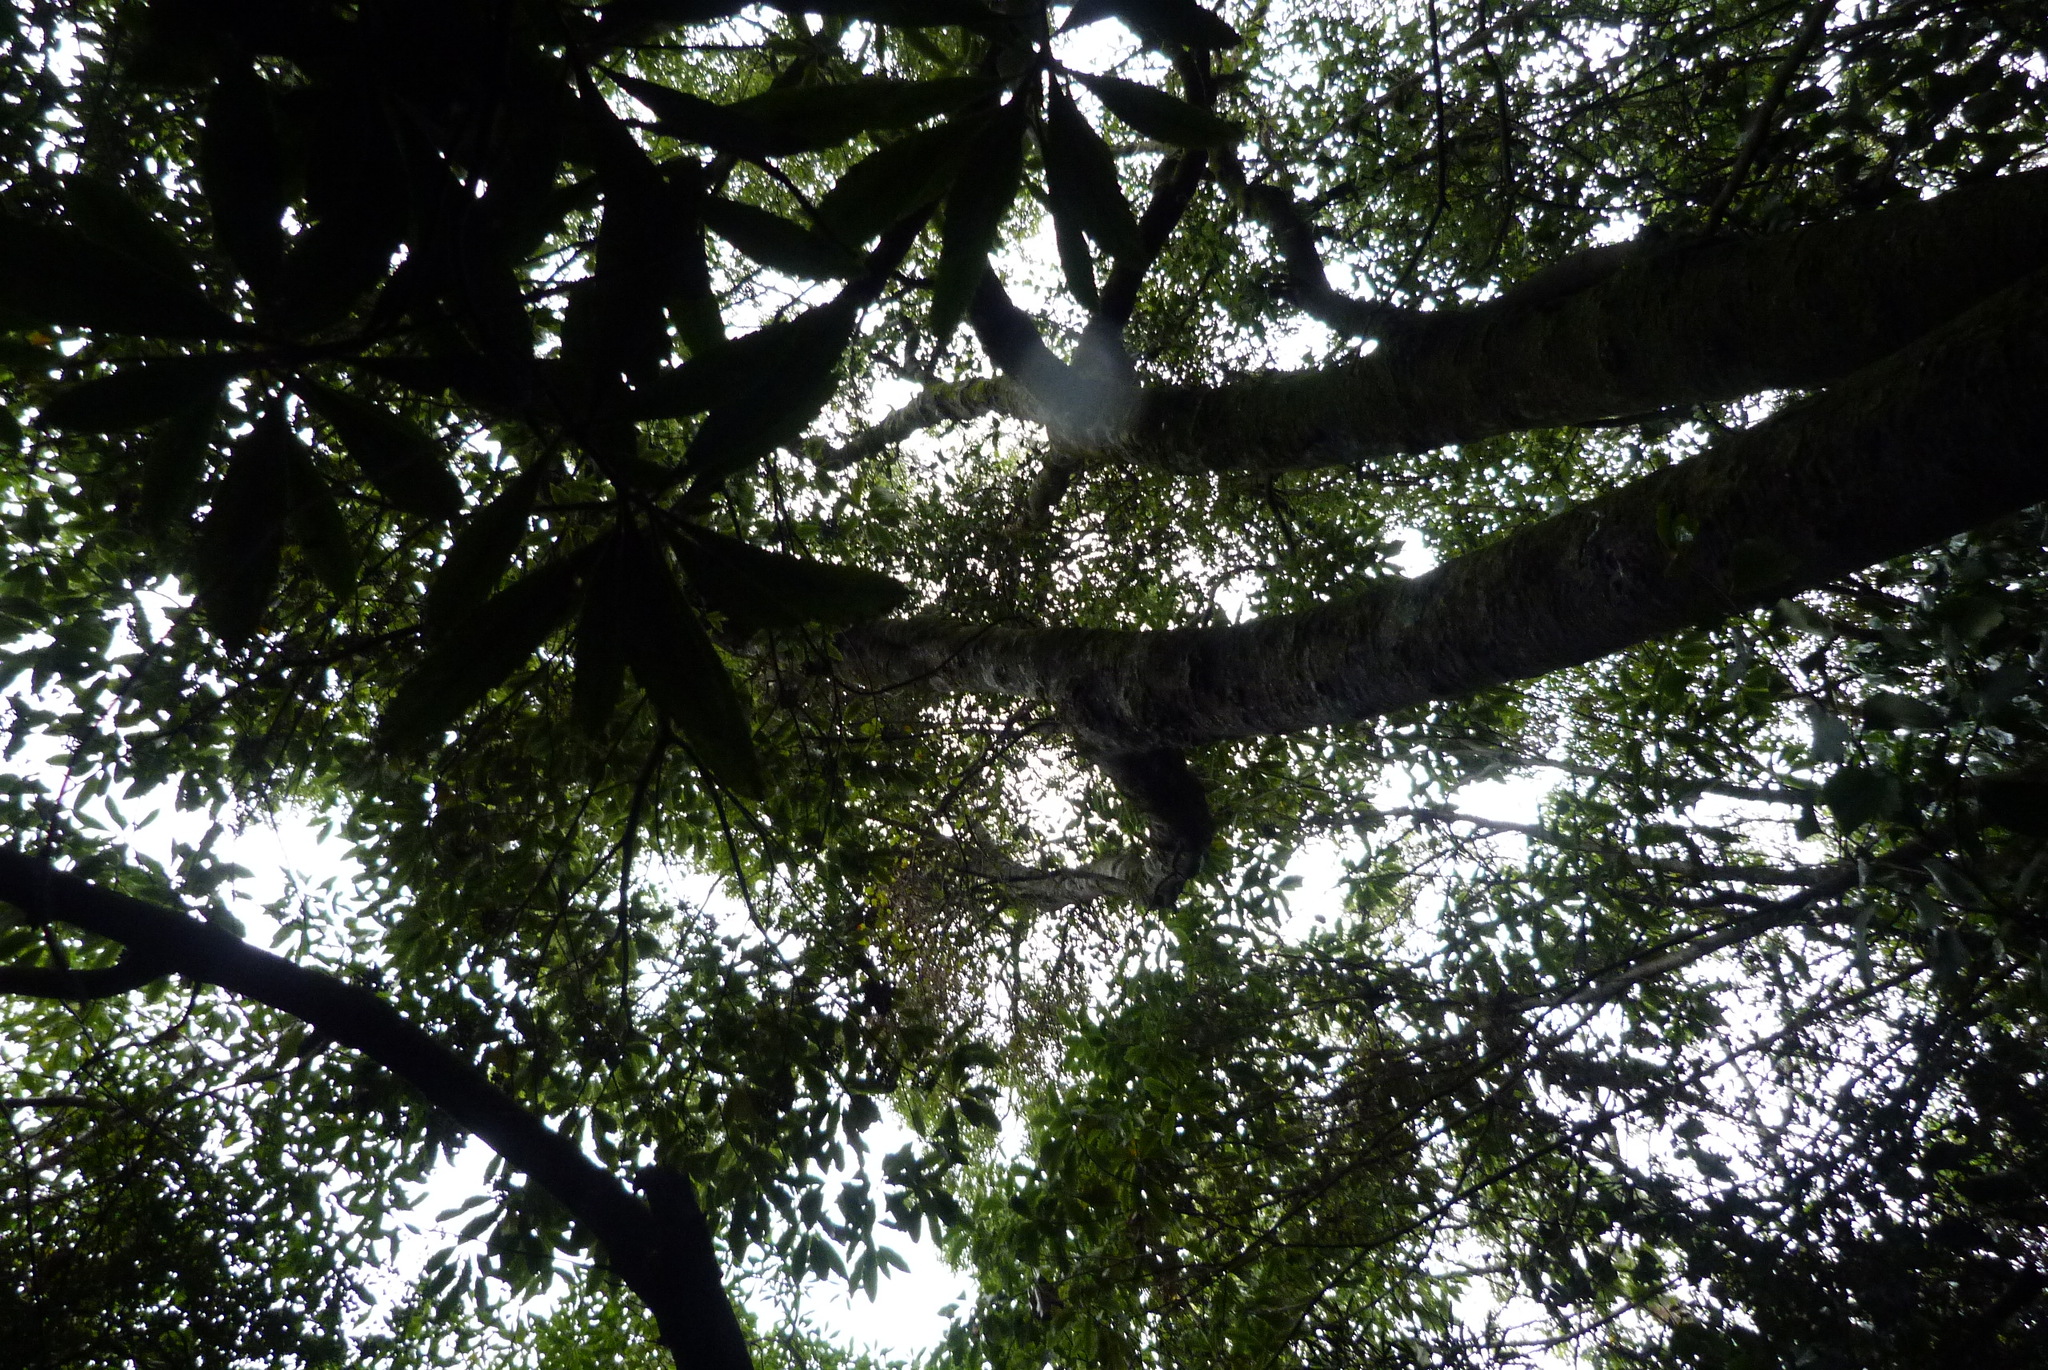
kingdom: Plantae
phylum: Tracheophyta
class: Magnoliopsida
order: Malvales
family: Malvaceae
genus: Hoheria
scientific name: Hoheria angustifolia
